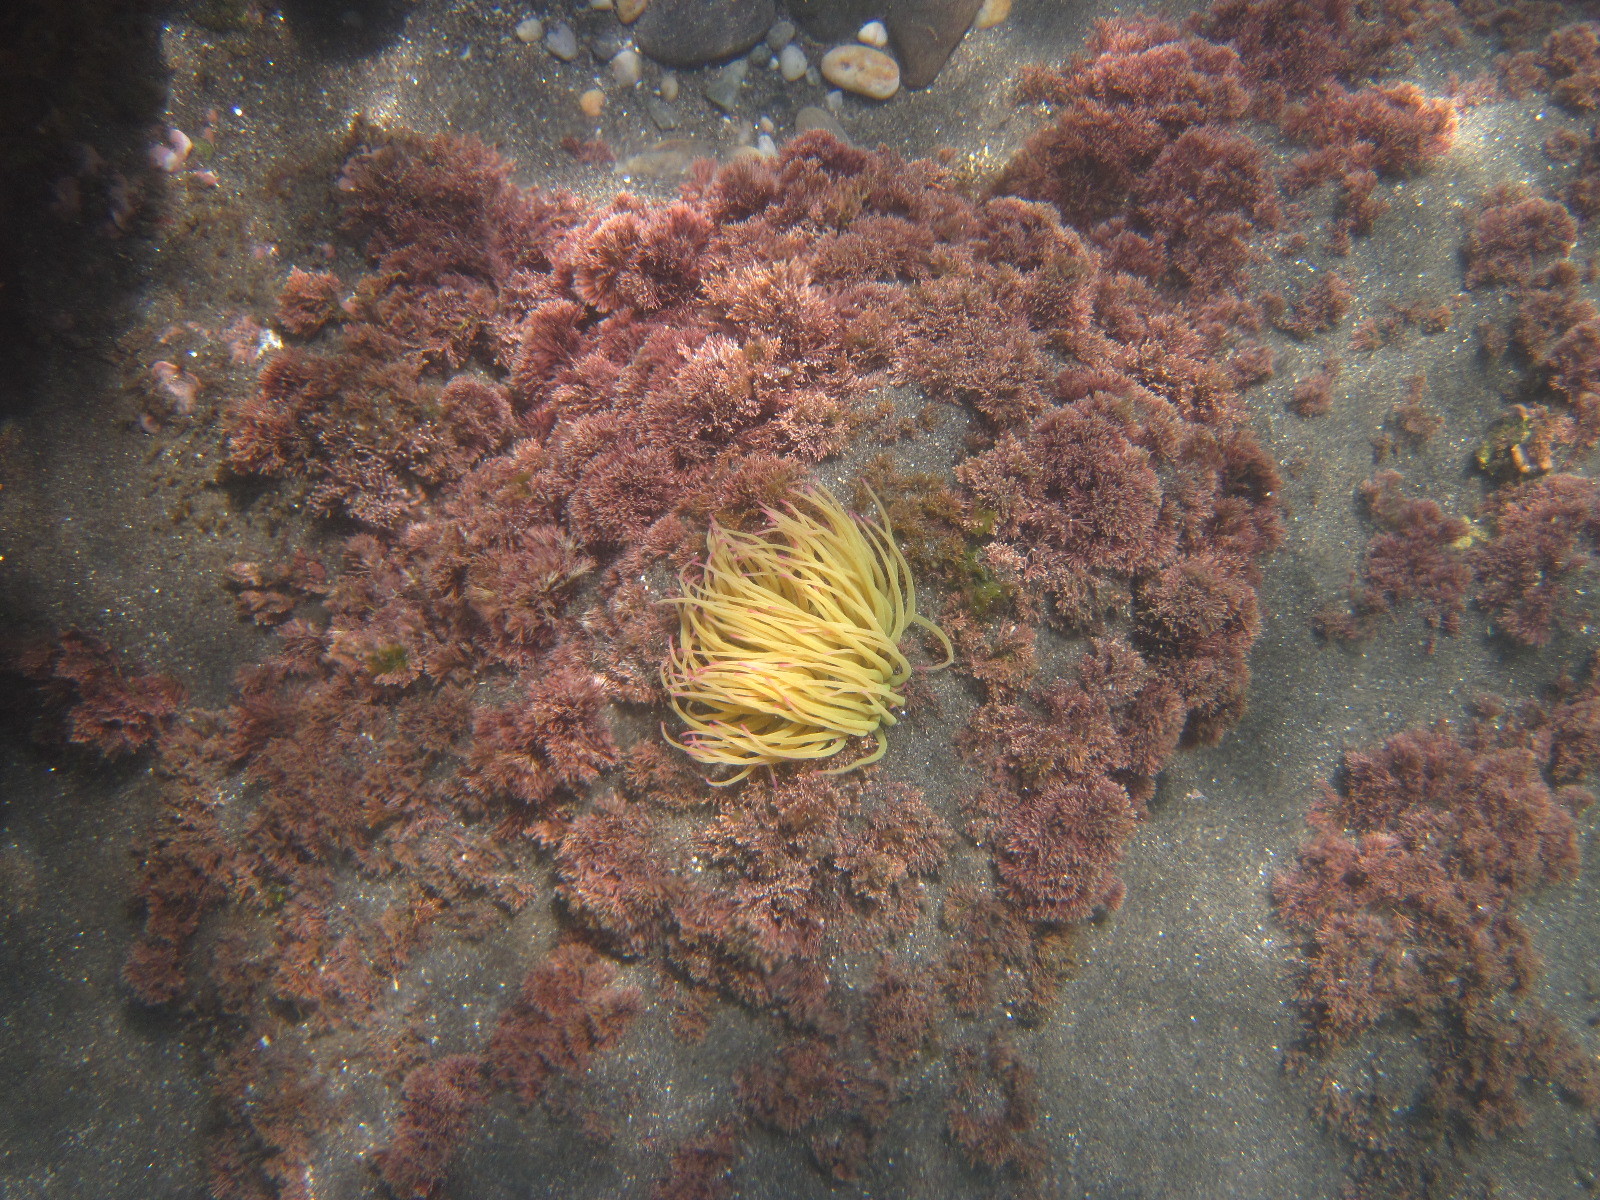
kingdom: Animalia
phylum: Cnidaria
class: Anthozoa
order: Actiniaria
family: Actiniidae
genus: Anemonia
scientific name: Anemonia viridis
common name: Snakelocks anemone
